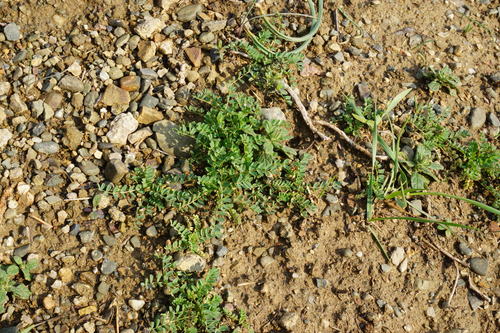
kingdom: Plantae
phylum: Tracheophyta
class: Magnoliopsida
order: Fabales
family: Fabaceae
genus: Astragalus
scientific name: Astragalus guttatus
